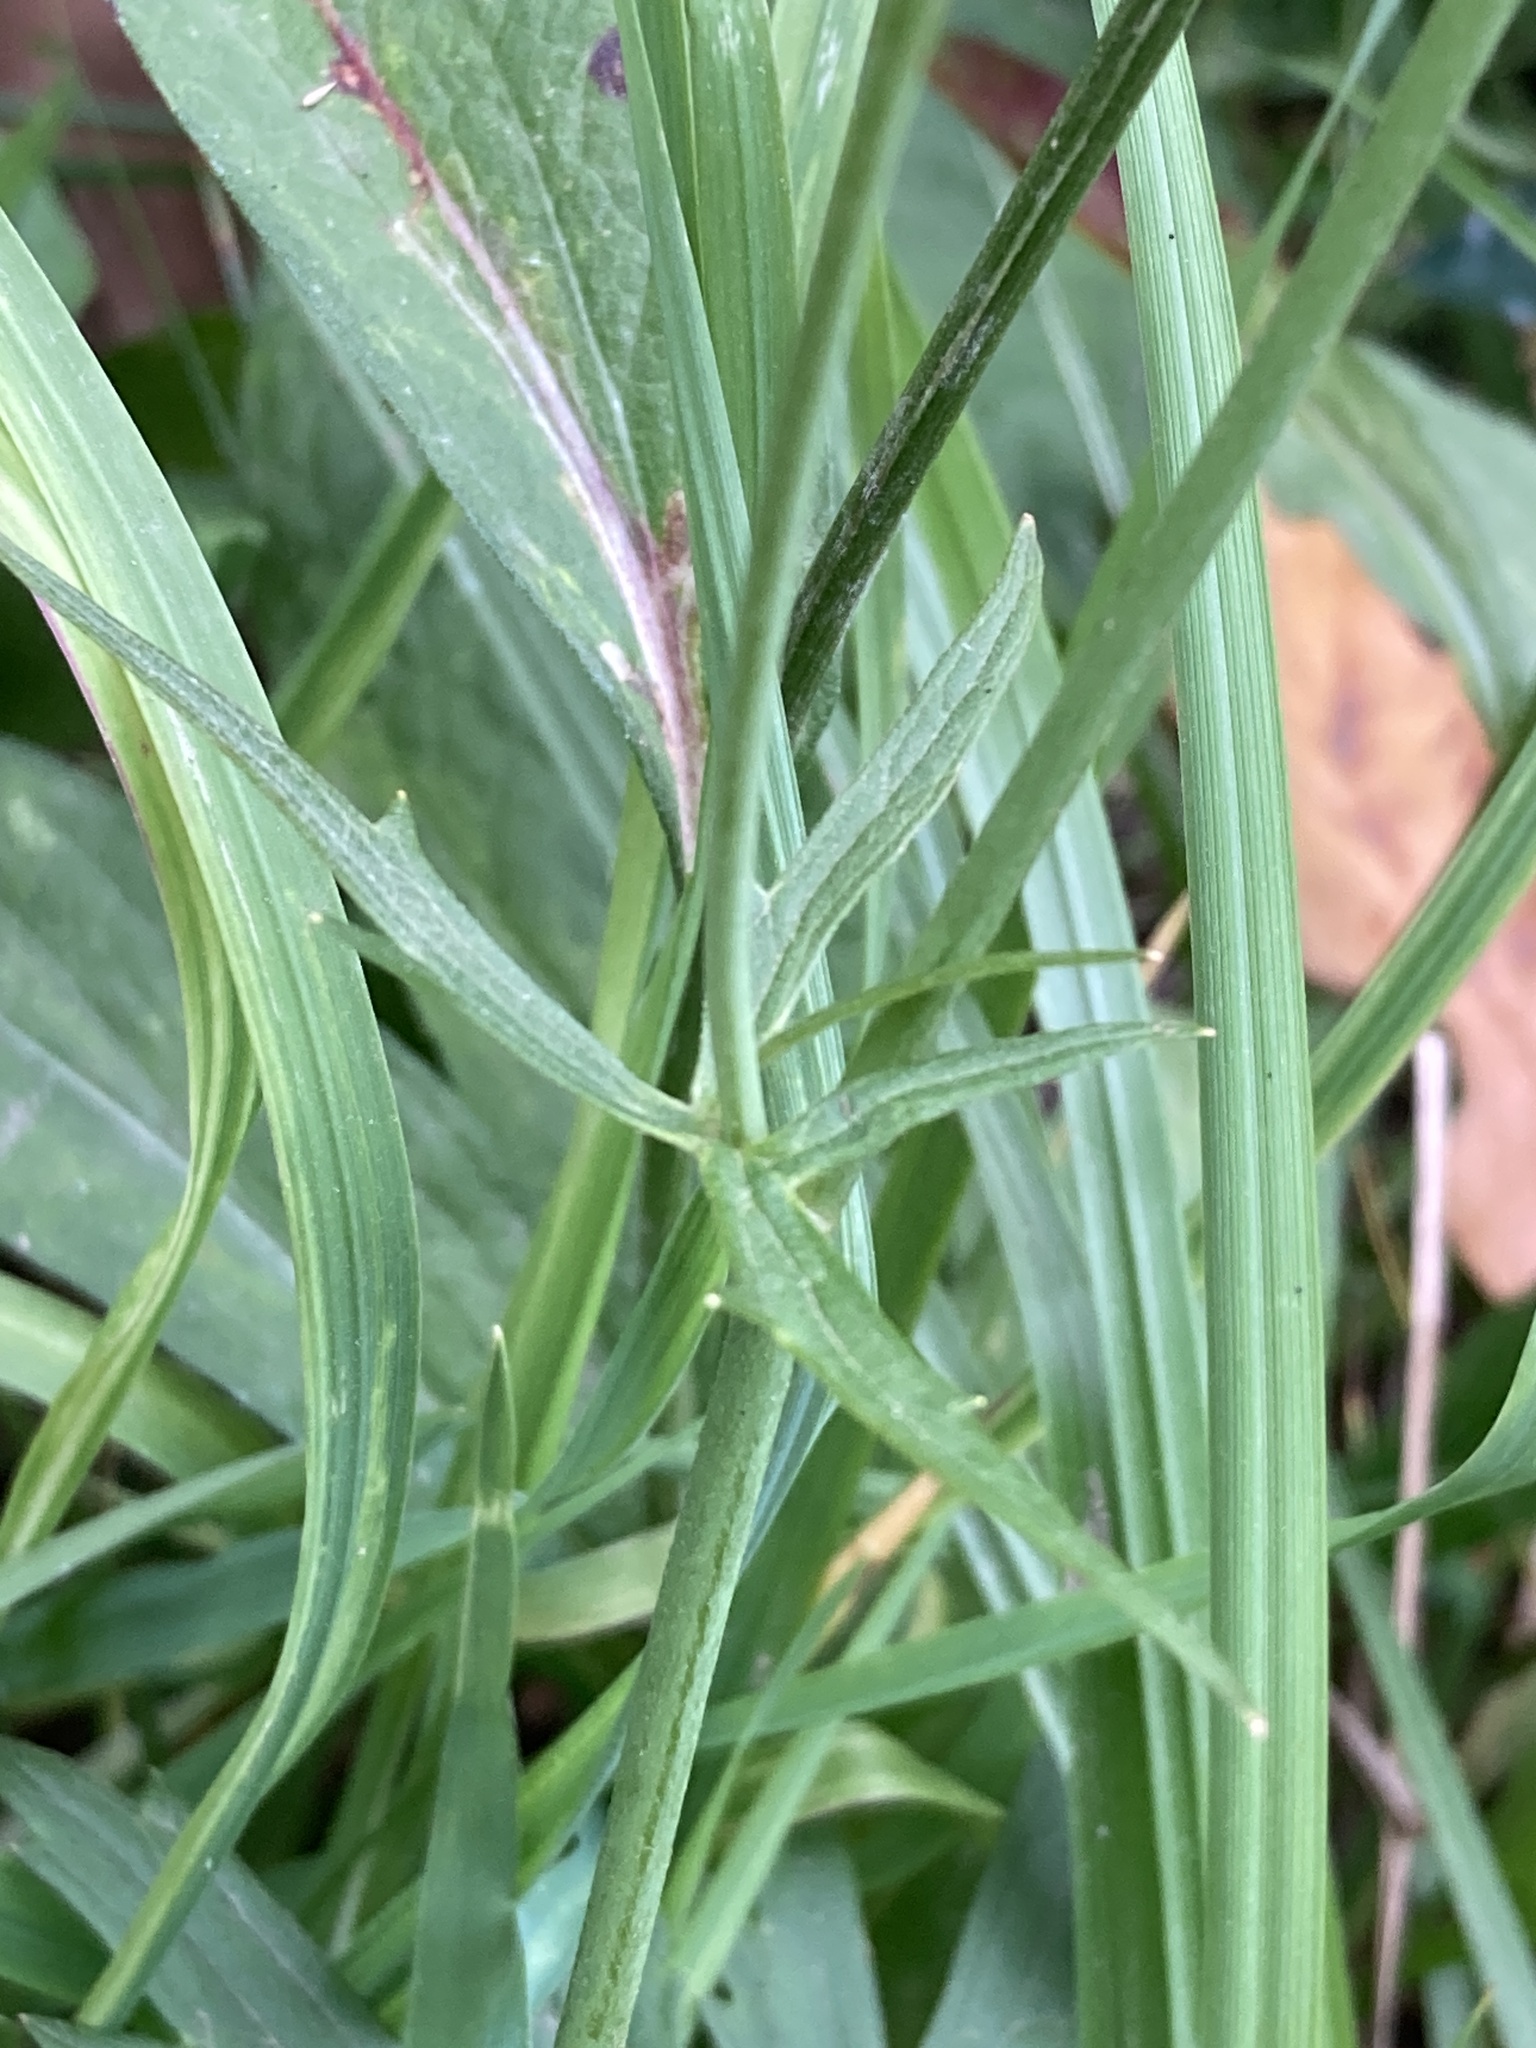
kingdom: Plantae
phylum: Tracheophyta
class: Magnoliopsida
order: Ranunculales
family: Ranunculaceae
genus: Ranunculus
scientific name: Ranunculus acris
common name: Meadow buttercup
